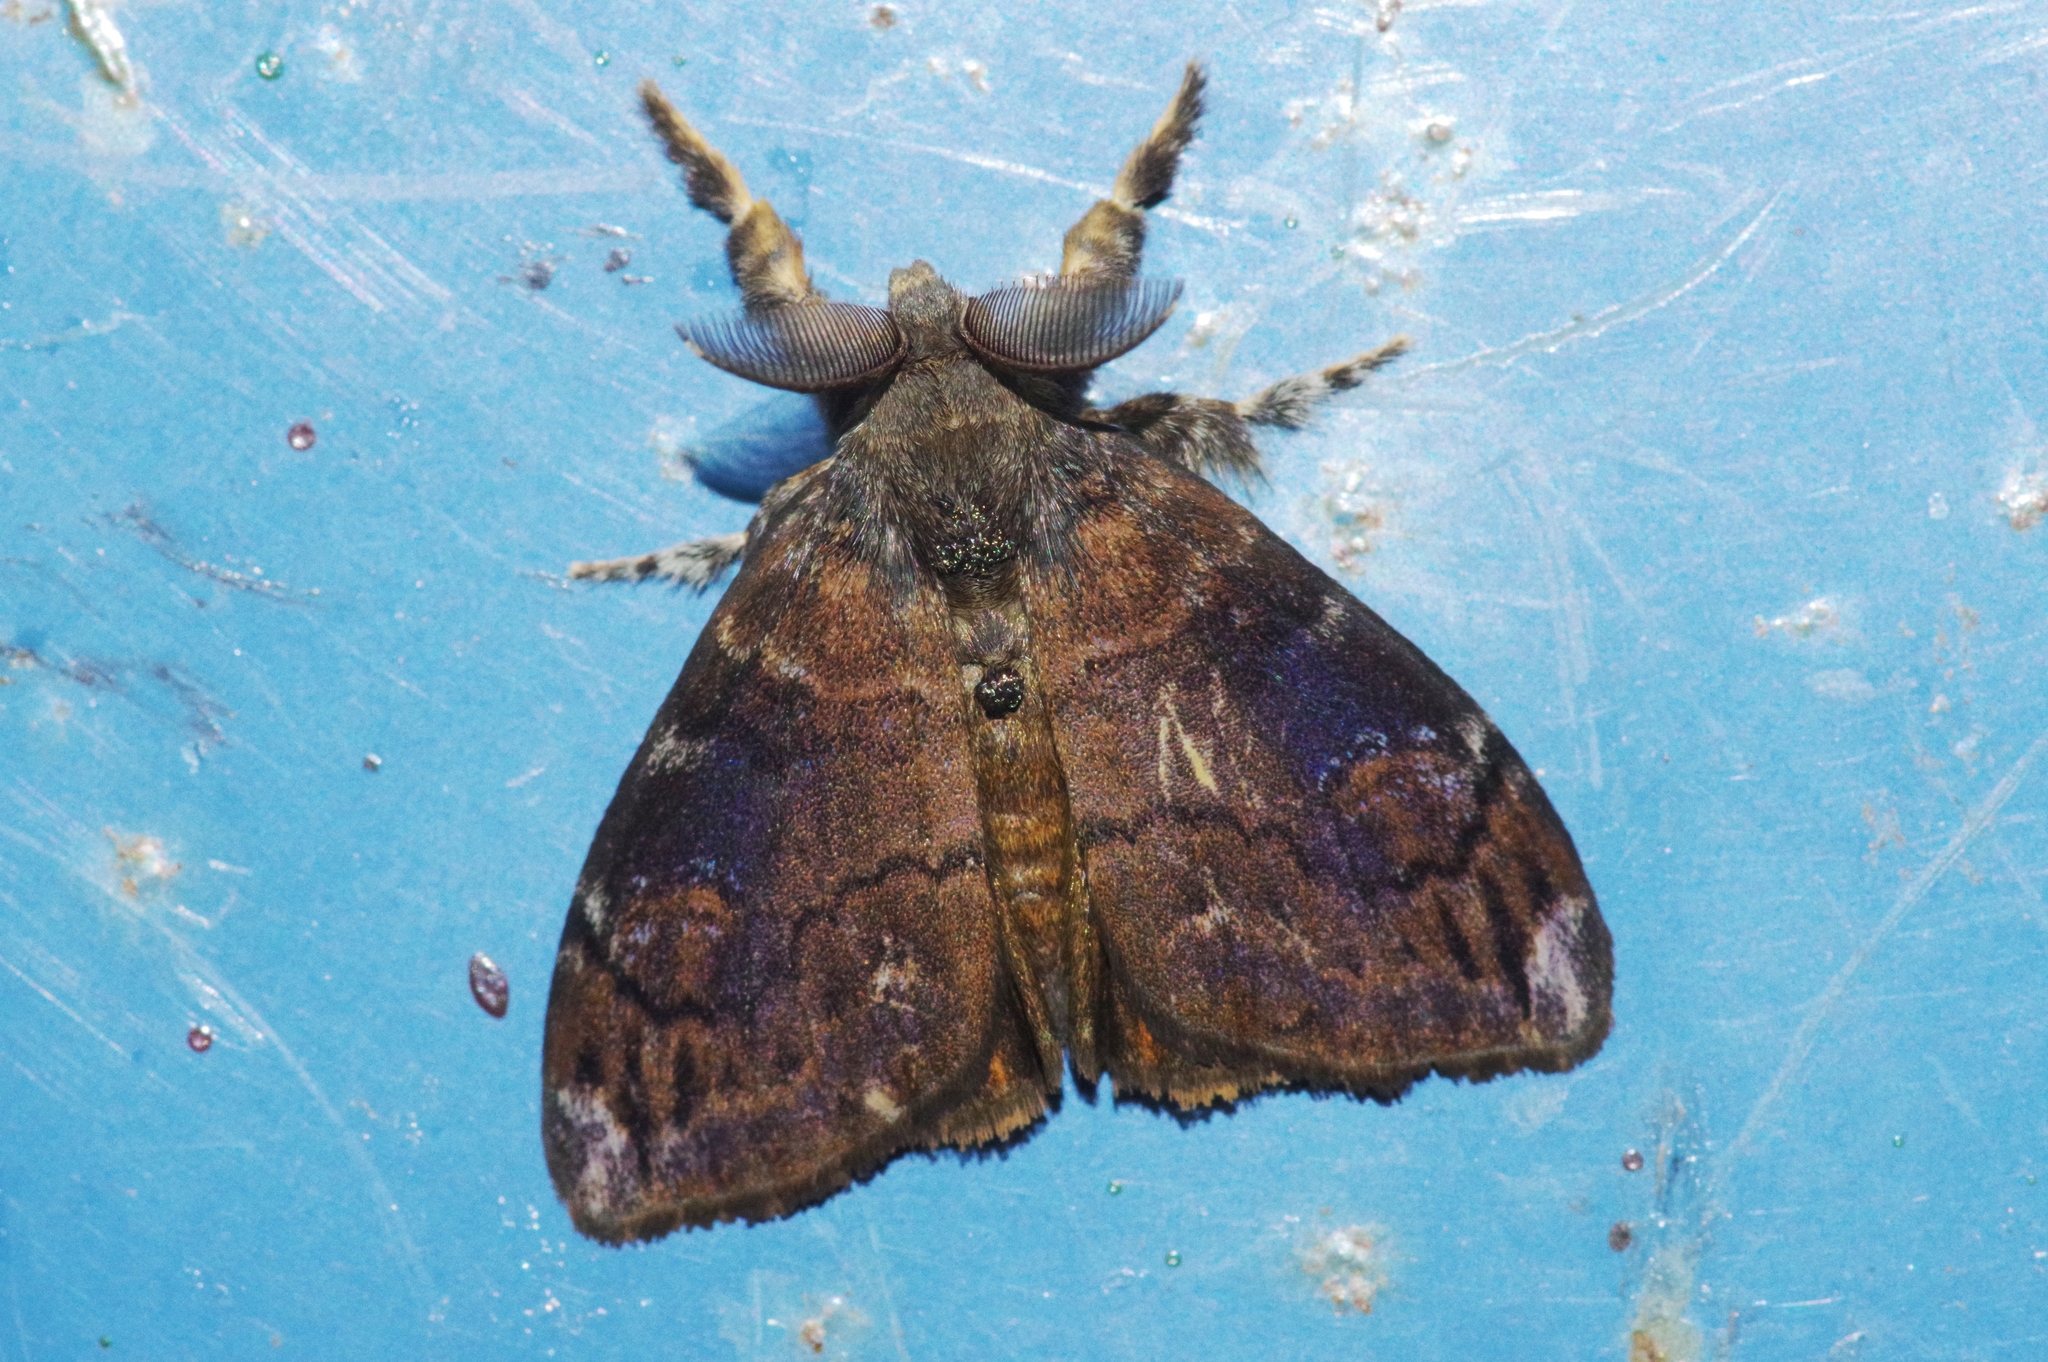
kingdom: Animalia
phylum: Arthropoda
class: Insecta
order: Lepidoptera
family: Erebidae
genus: Orgyia
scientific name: Orgyia postica
